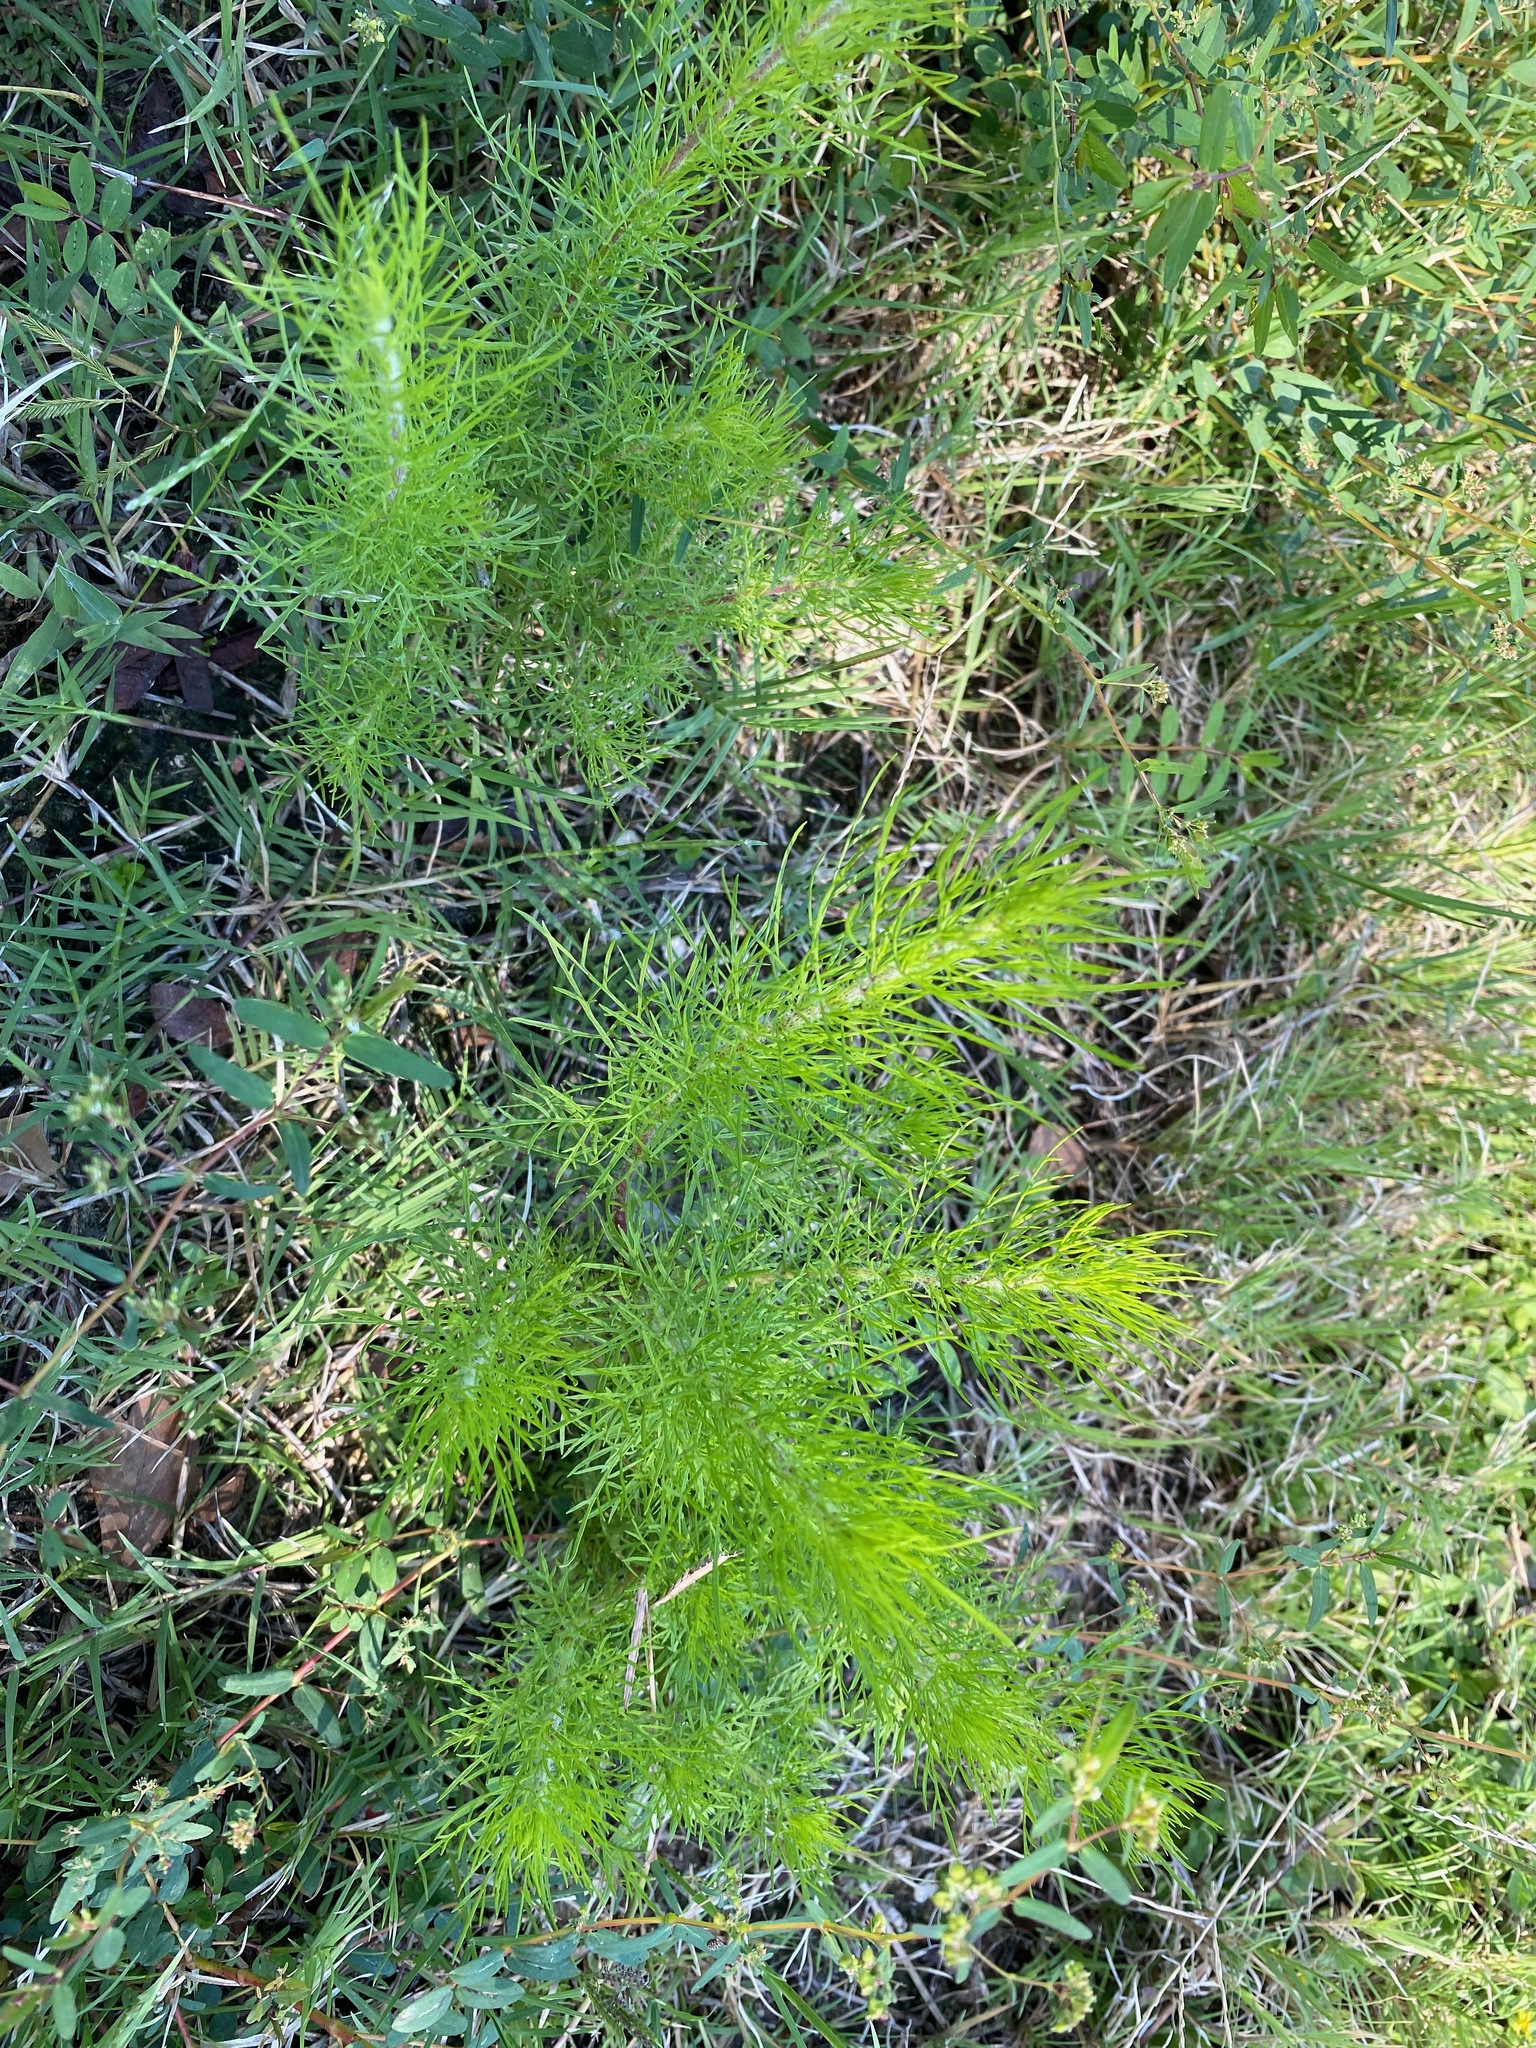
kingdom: Plantae
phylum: Tracheophyta
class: Magnoliopsida
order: Asterales
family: Asteraceae
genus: Eupatorium
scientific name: Eupatorium capillifolium
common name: Dog-fennel
